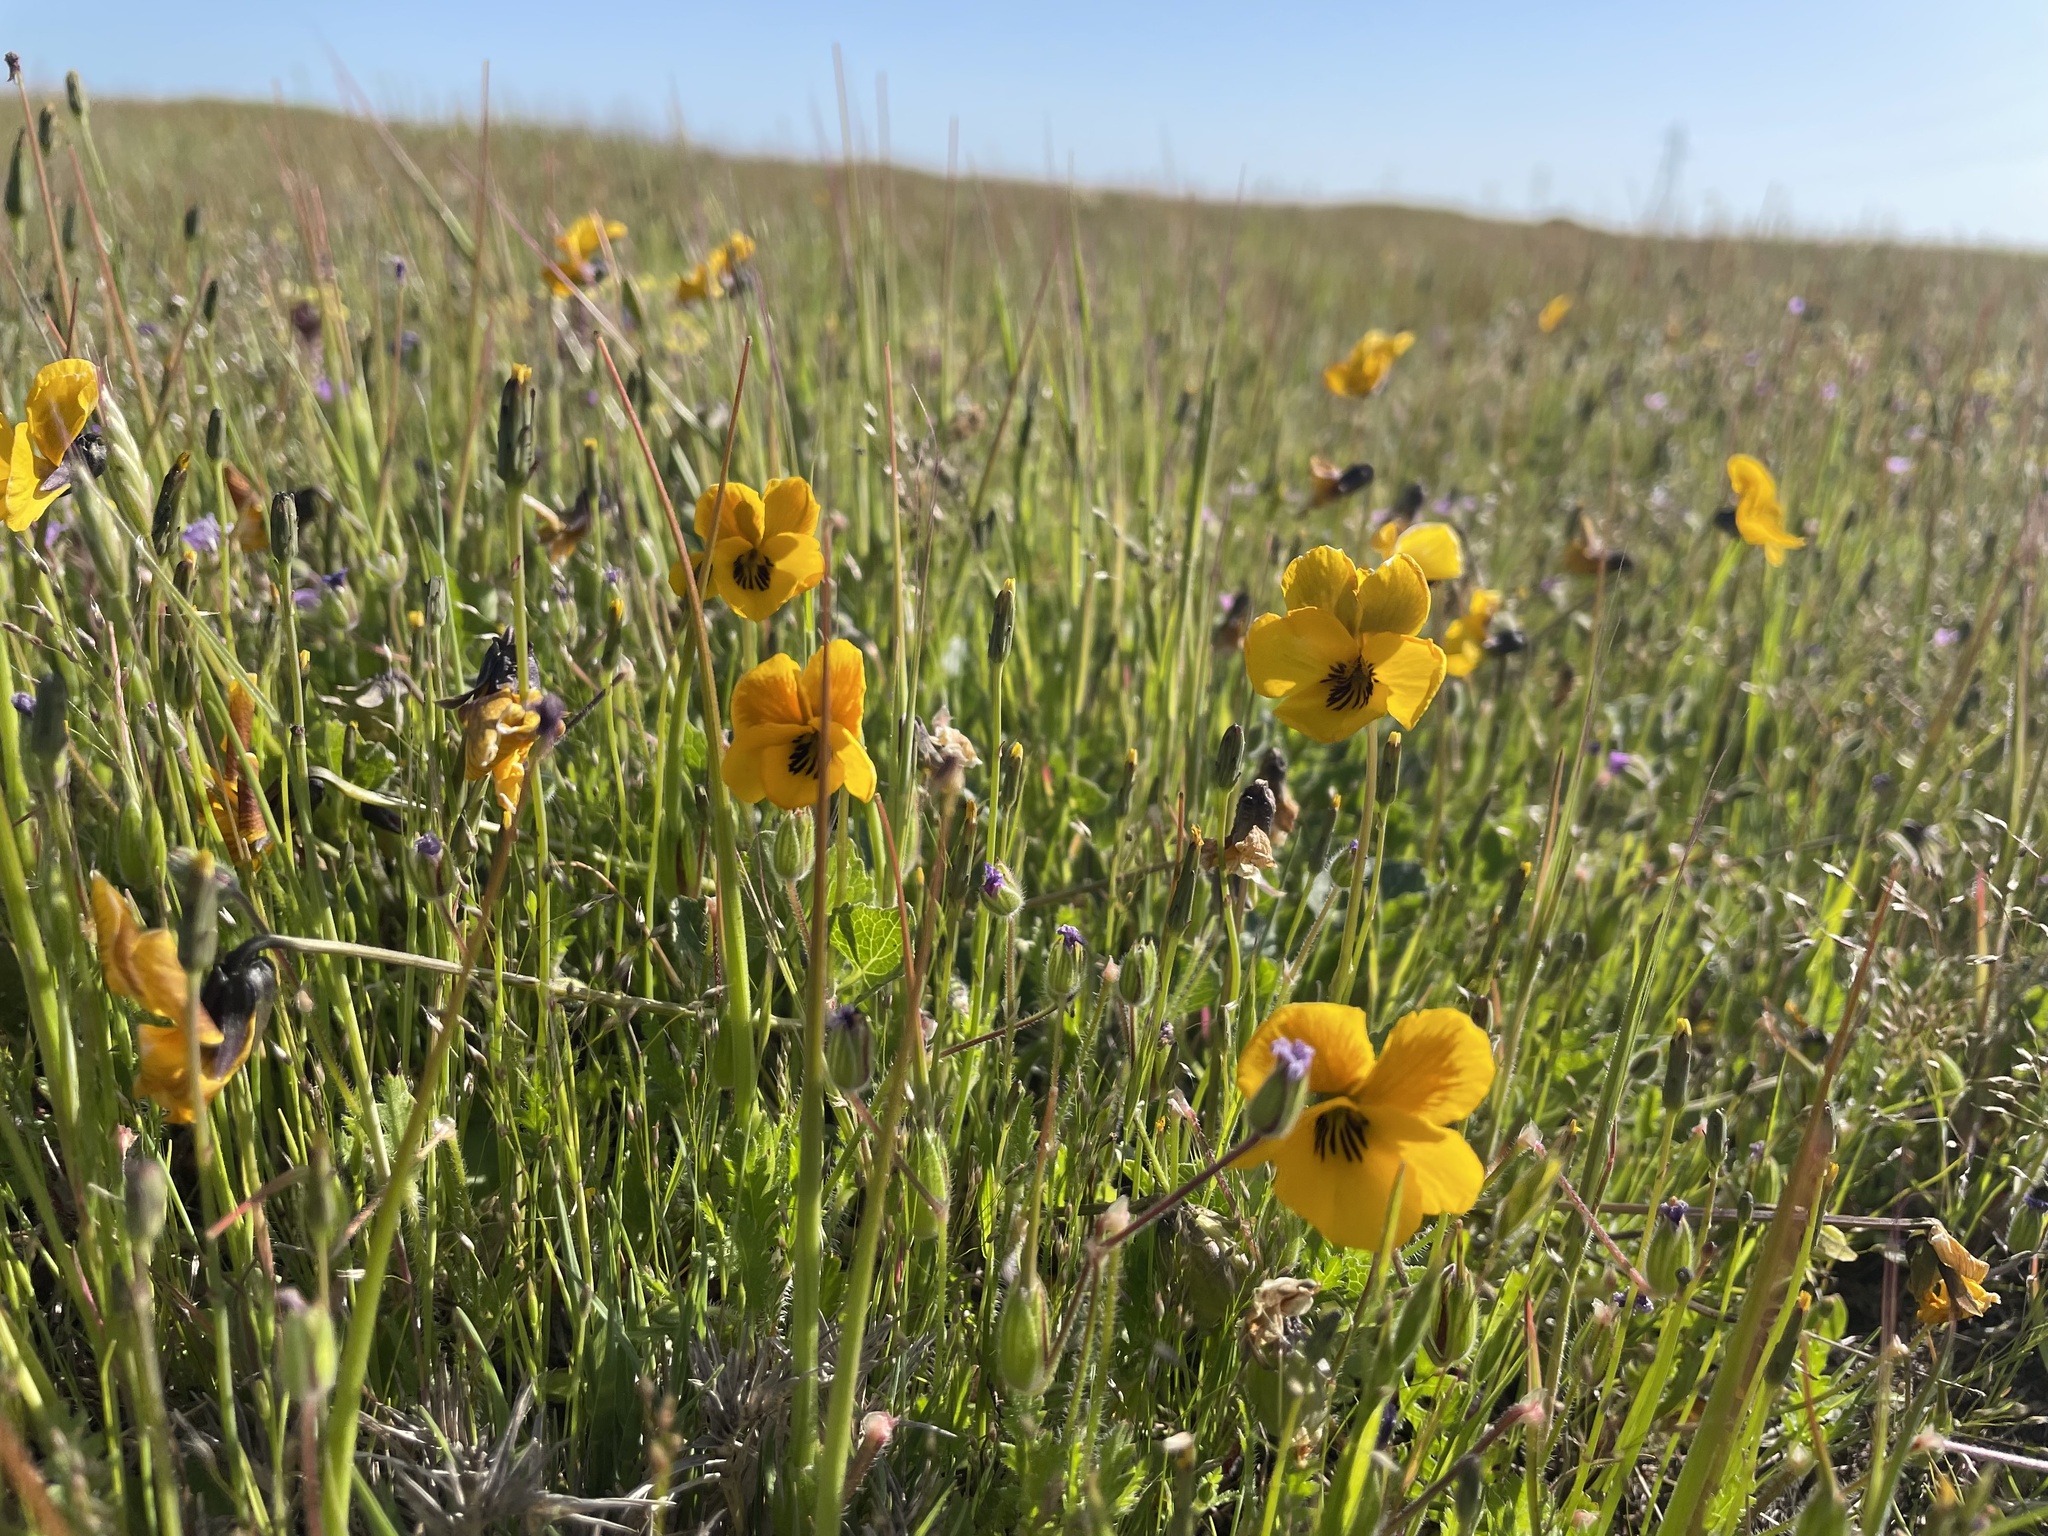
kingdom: Plantae
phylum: Tracheophyta
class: Magnoliopsida
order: Malpighiales
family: Violaceae
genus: Viola
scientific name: Viola pedunculata
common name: California golden violet
